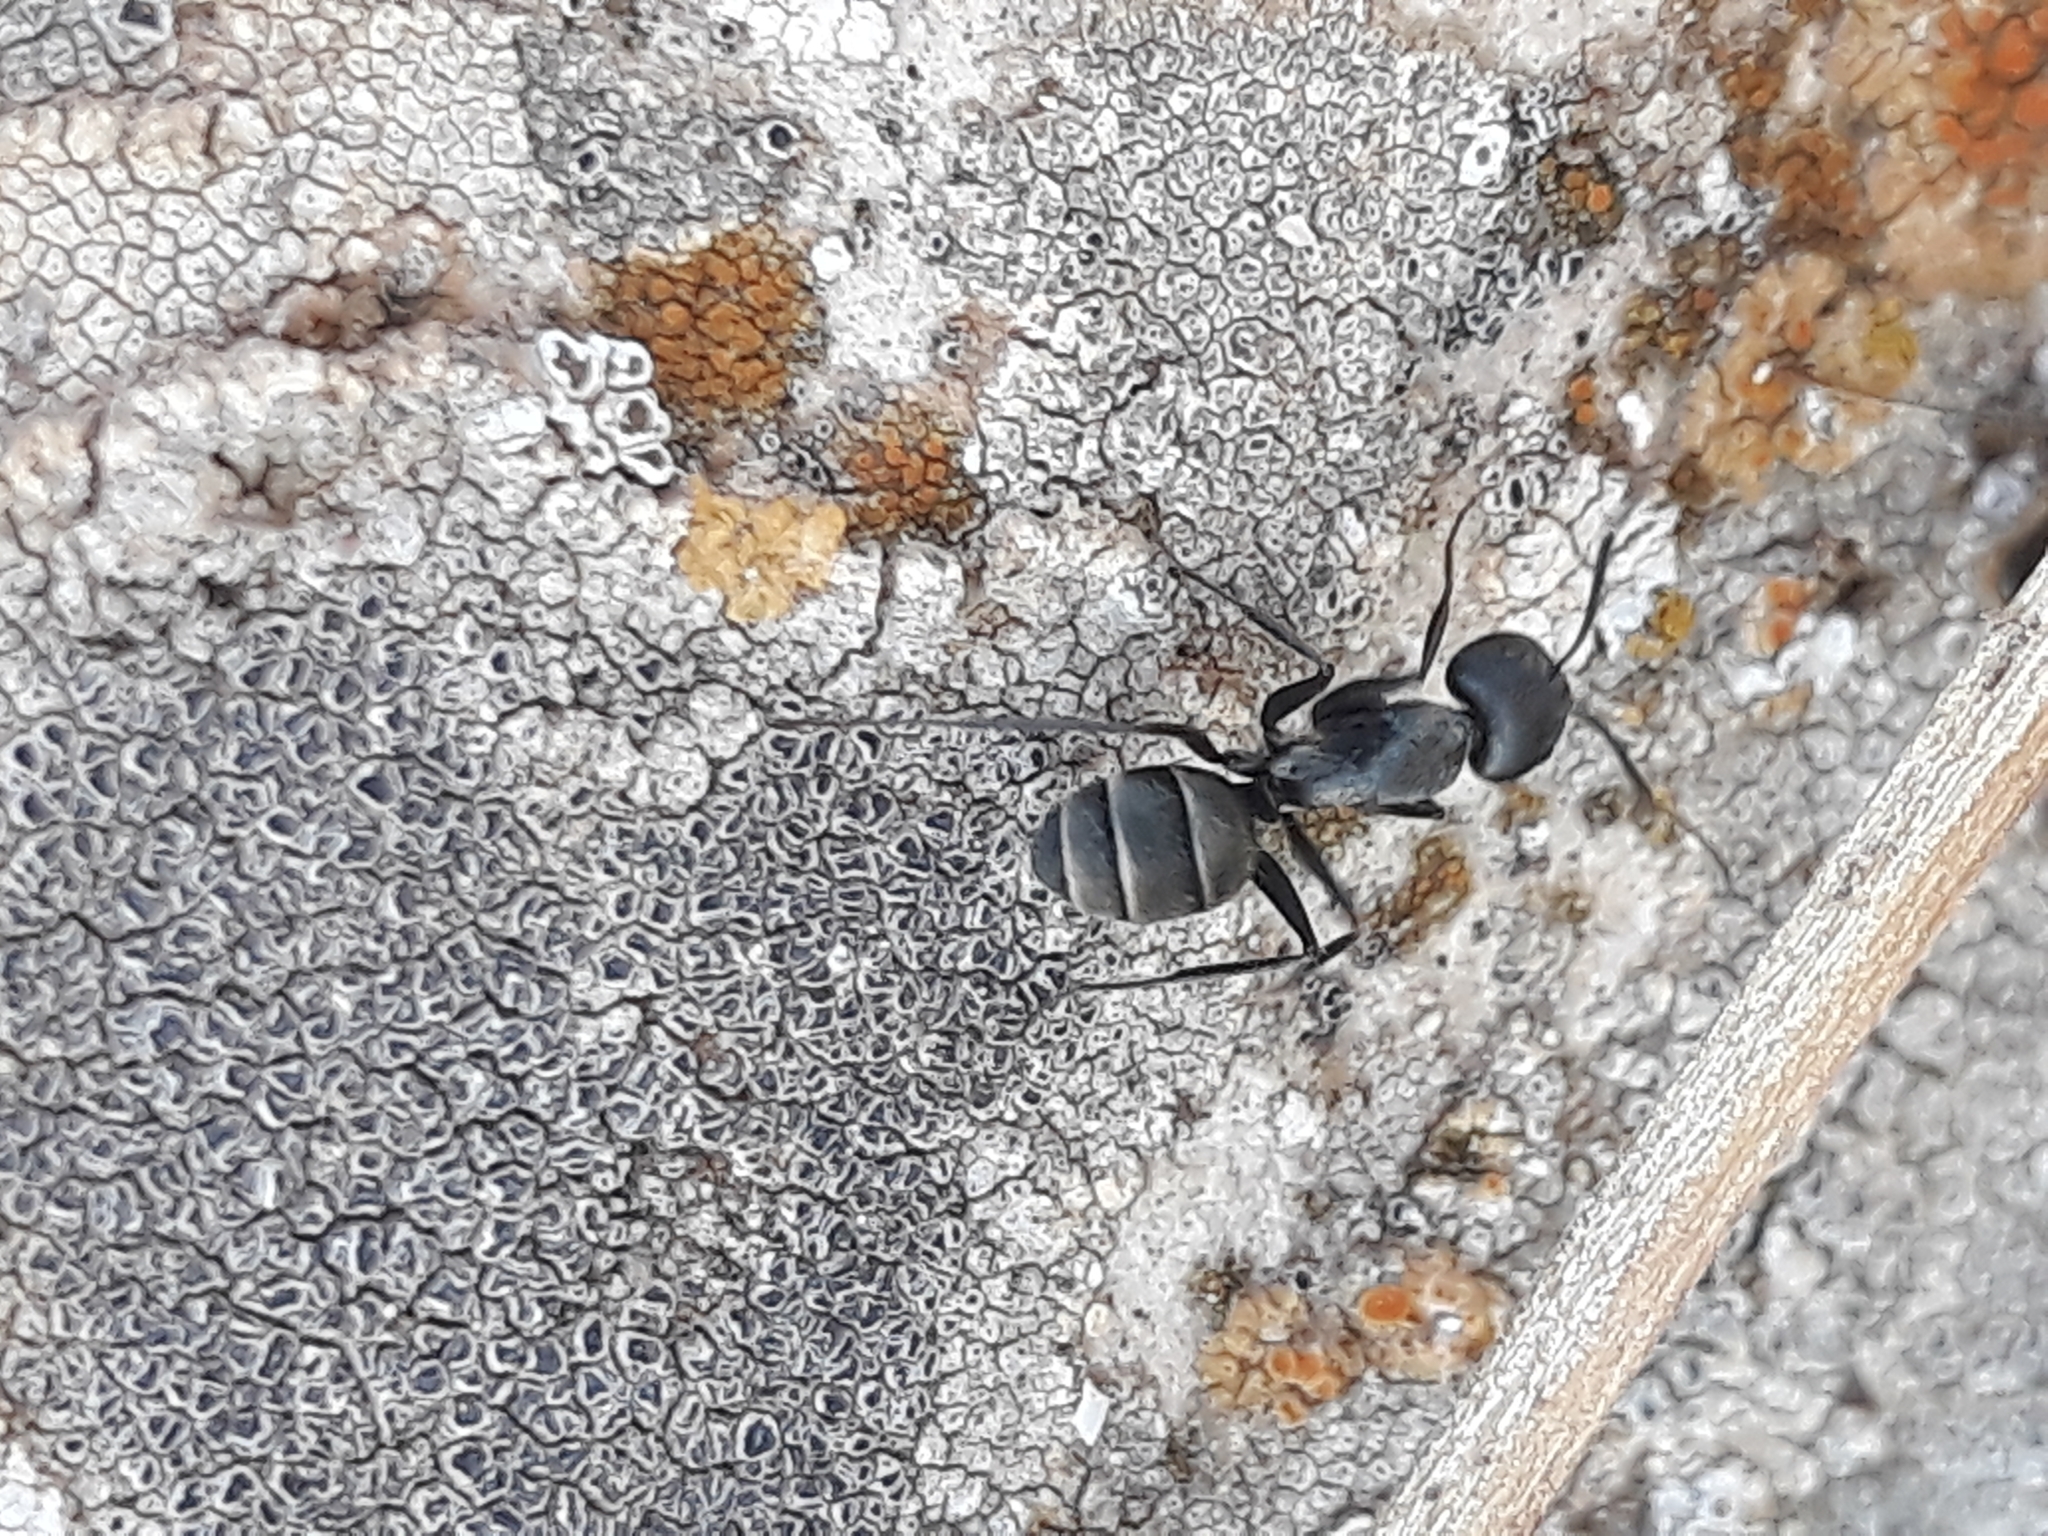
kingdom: Animalia
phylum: Arthropoda
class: Insecta
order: Hymenoptera
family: Formicidae
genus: Camponotus
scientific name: Camponotus micans
